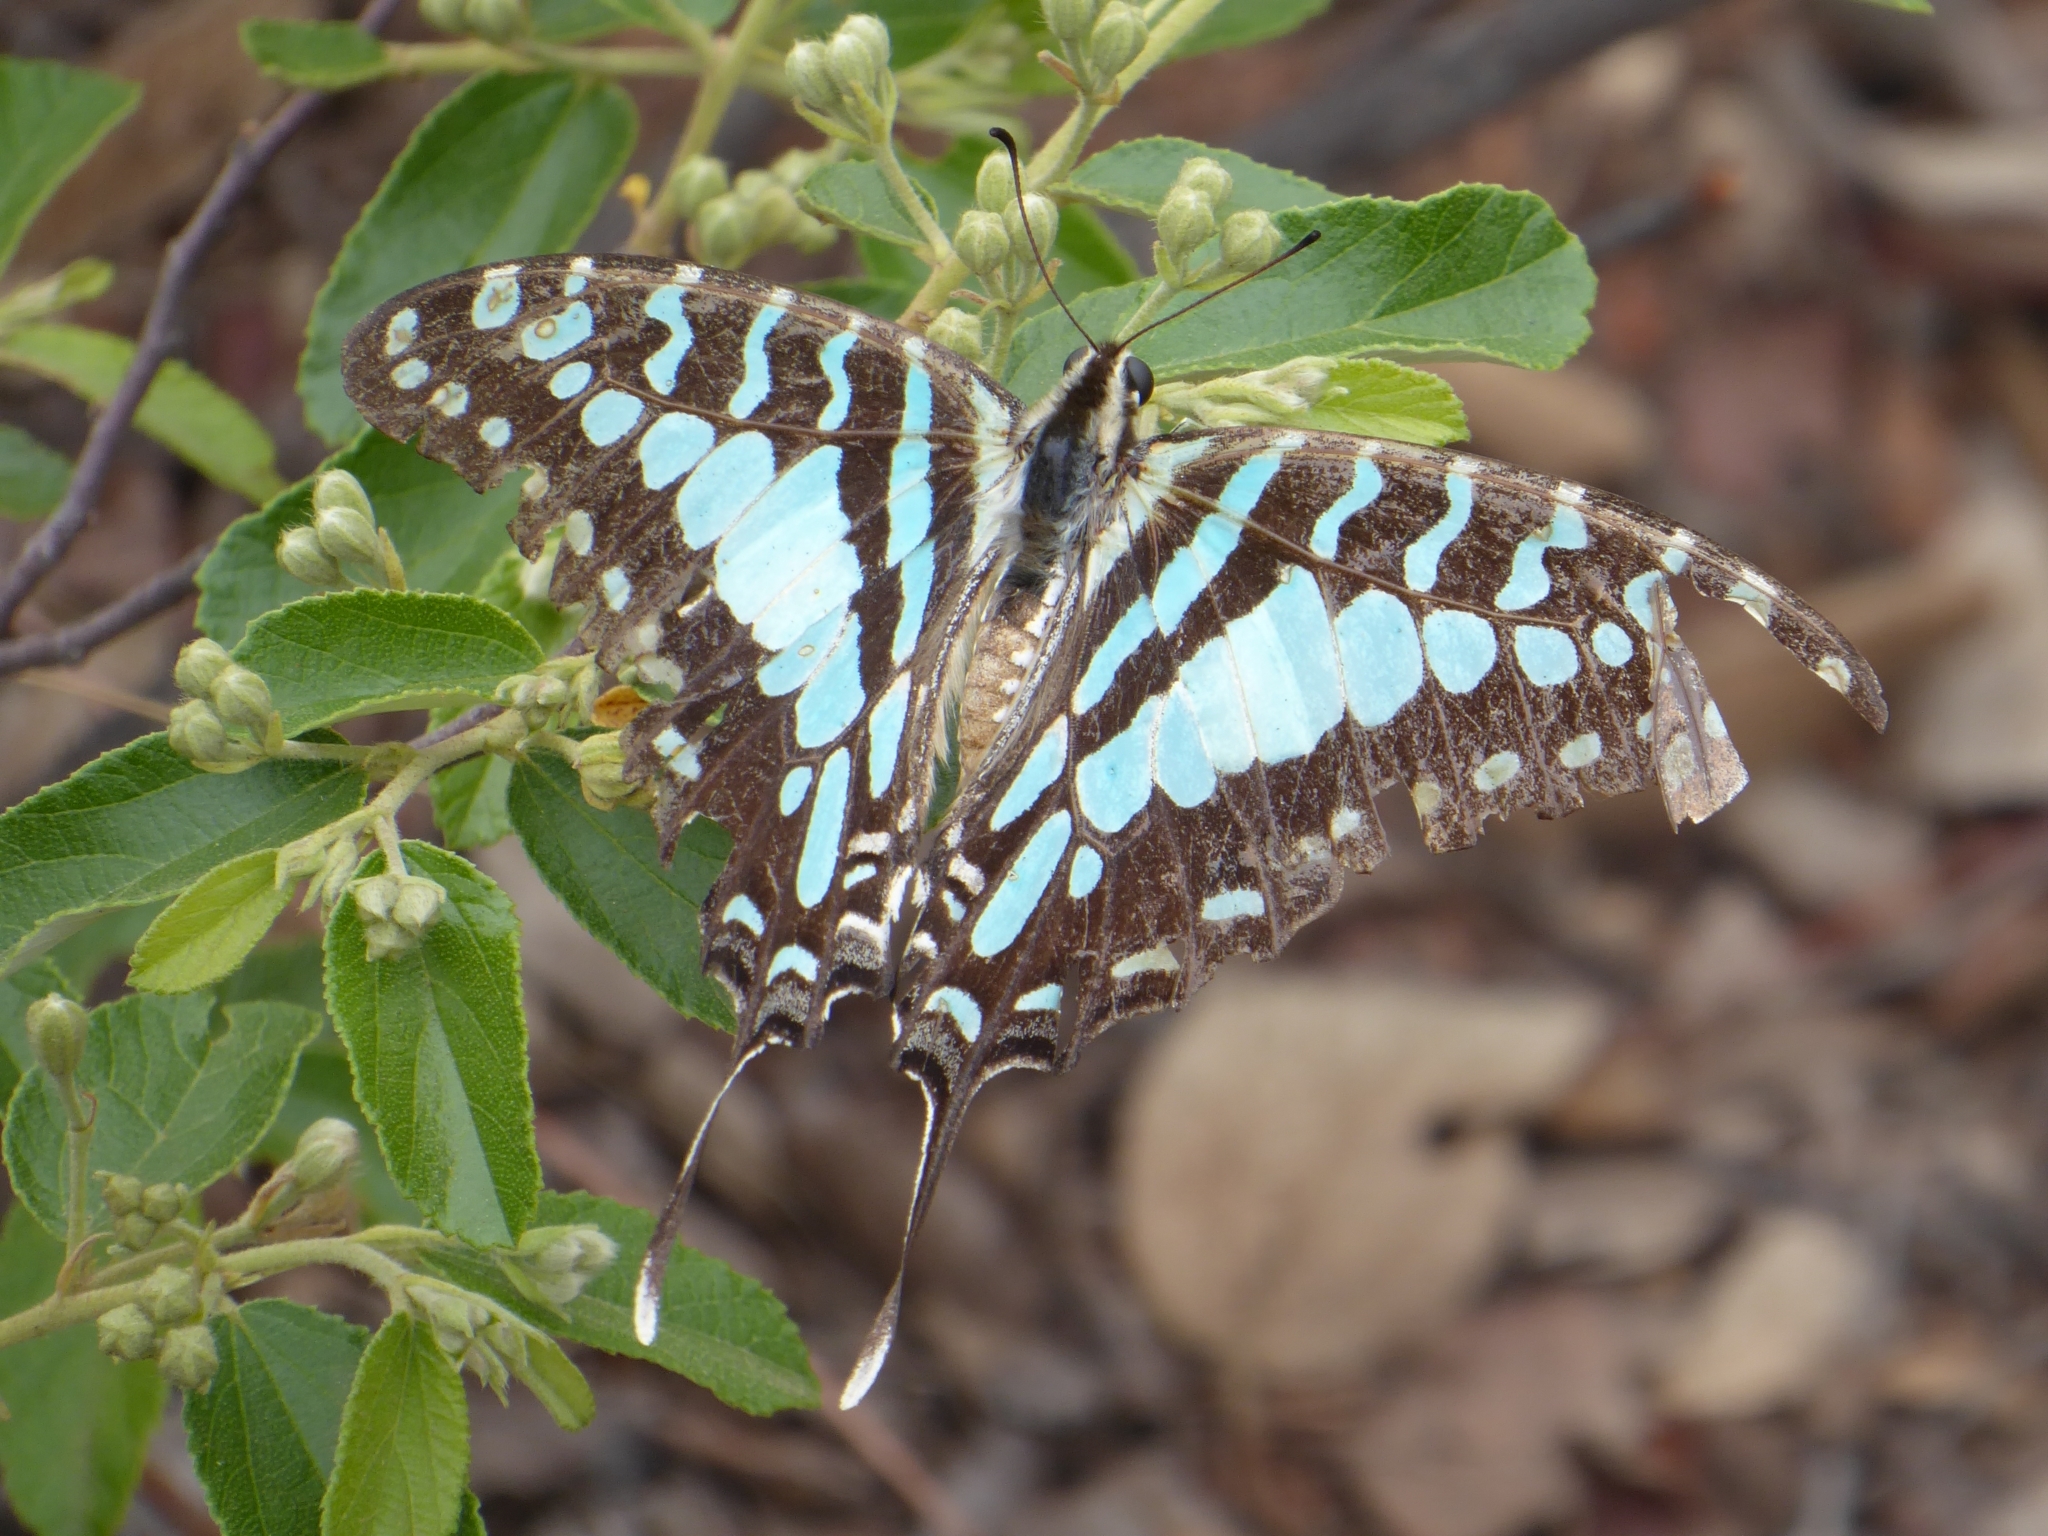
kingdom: Animalia
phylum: Arthropoda
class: Insecta
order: Lepidoptera
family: Papilionidae
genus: Graphium
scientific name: Graphium antheus
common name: Large striped swordtail
